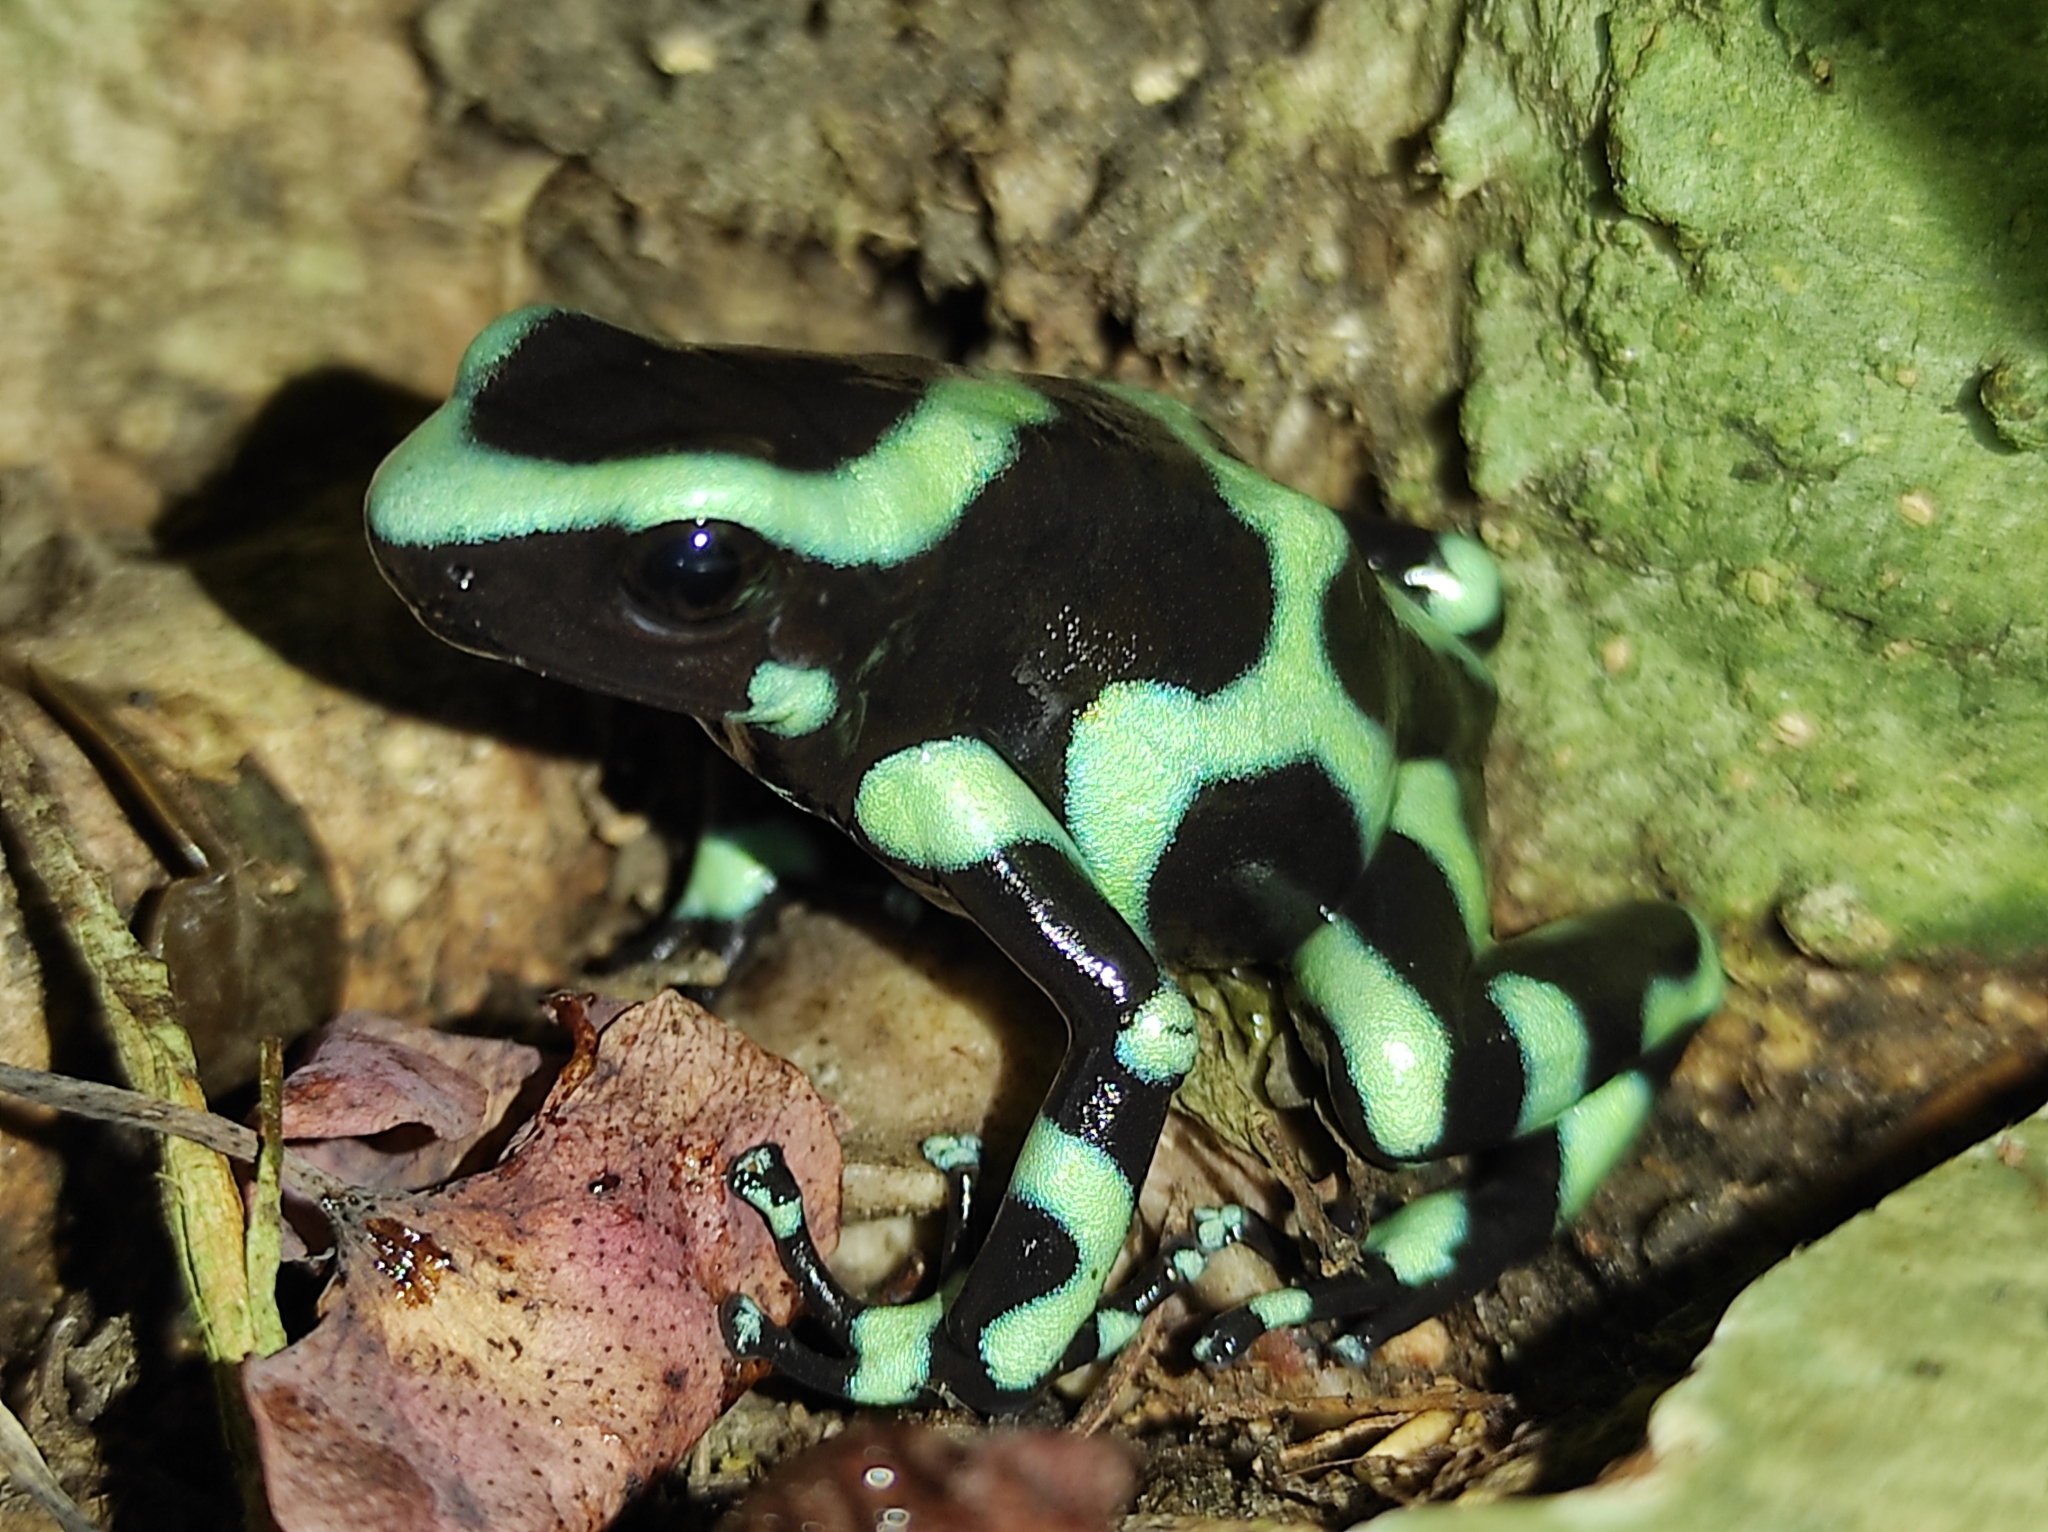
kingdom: Animalia
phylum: Chordata
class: Amphibia
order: Anura
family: Dendrobatidae
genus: Dendrobates
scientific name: Dendrobates auratus
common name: Green and black poison dart frog
